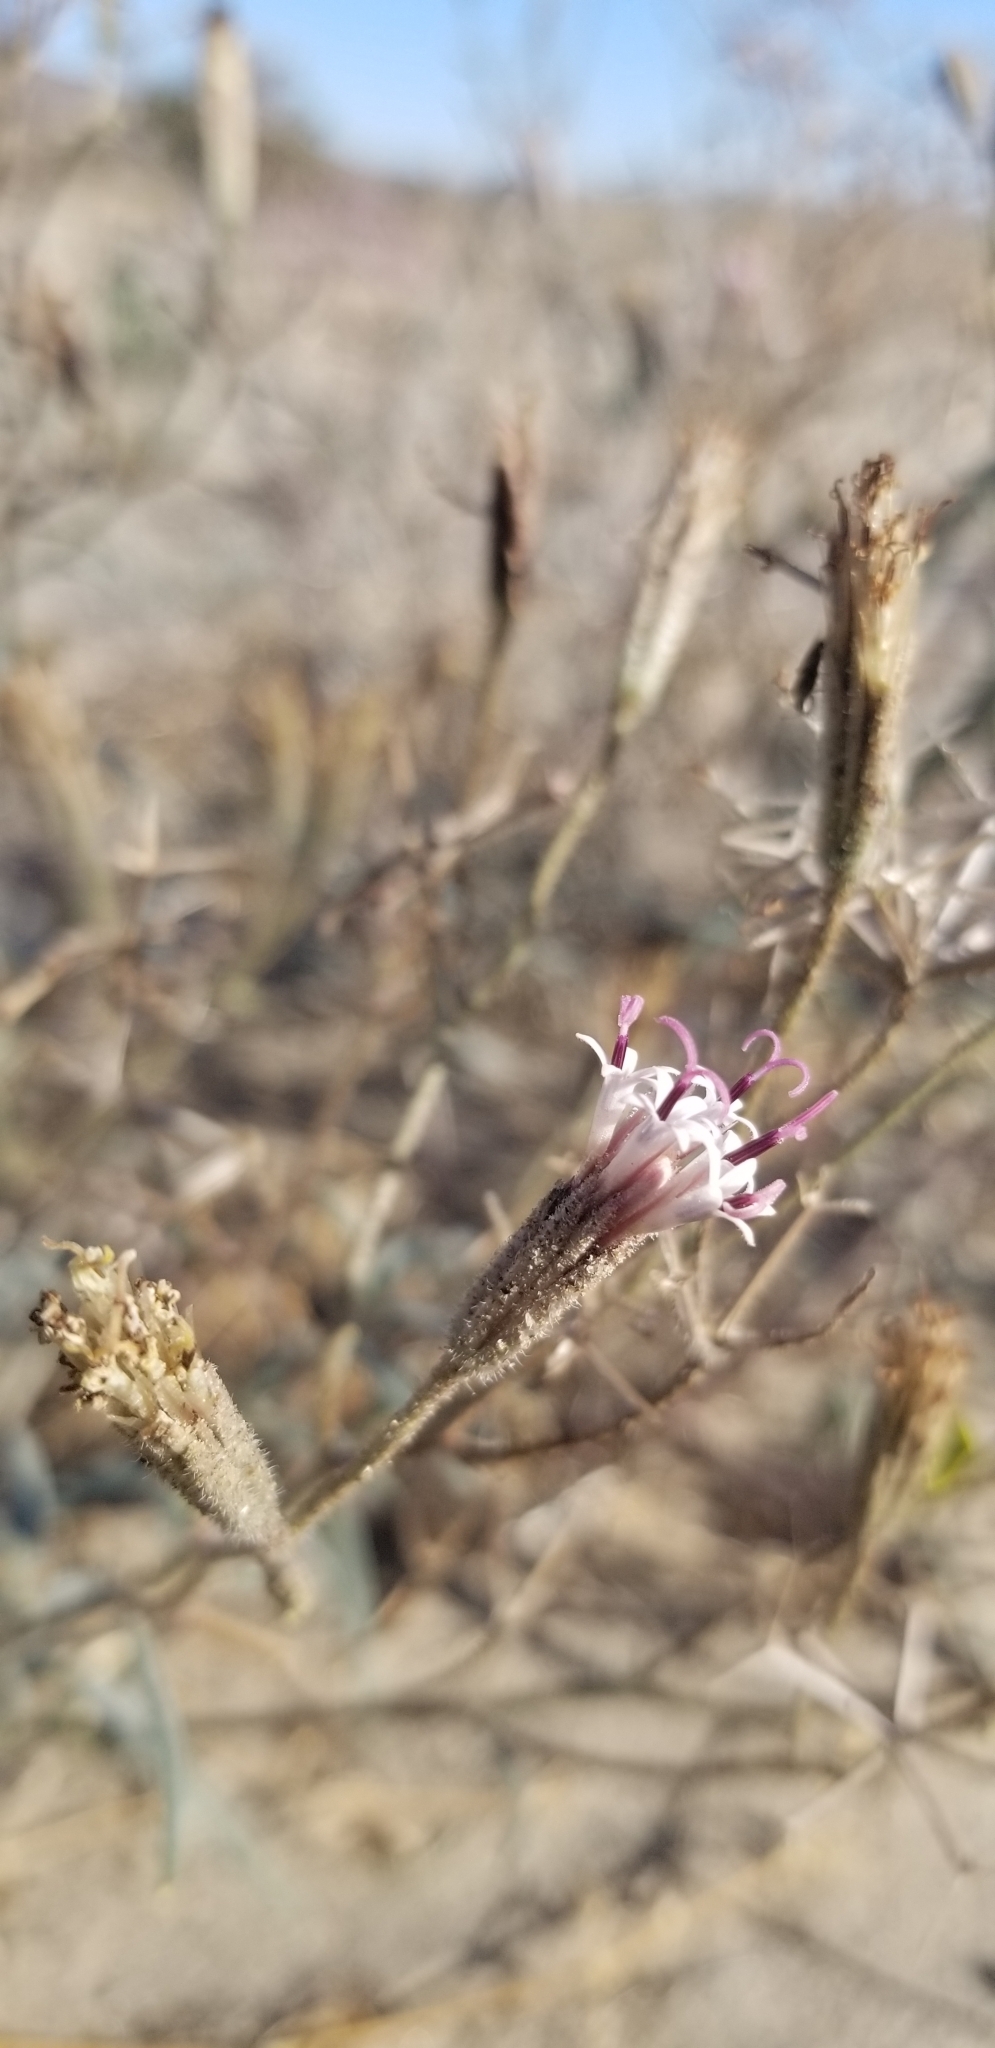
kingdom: Plantae
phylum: Tracheophyta
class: Magnoliopsida
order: Asterales
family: Asteraceae
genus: Palafoxia
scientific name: Palafoxia arida
